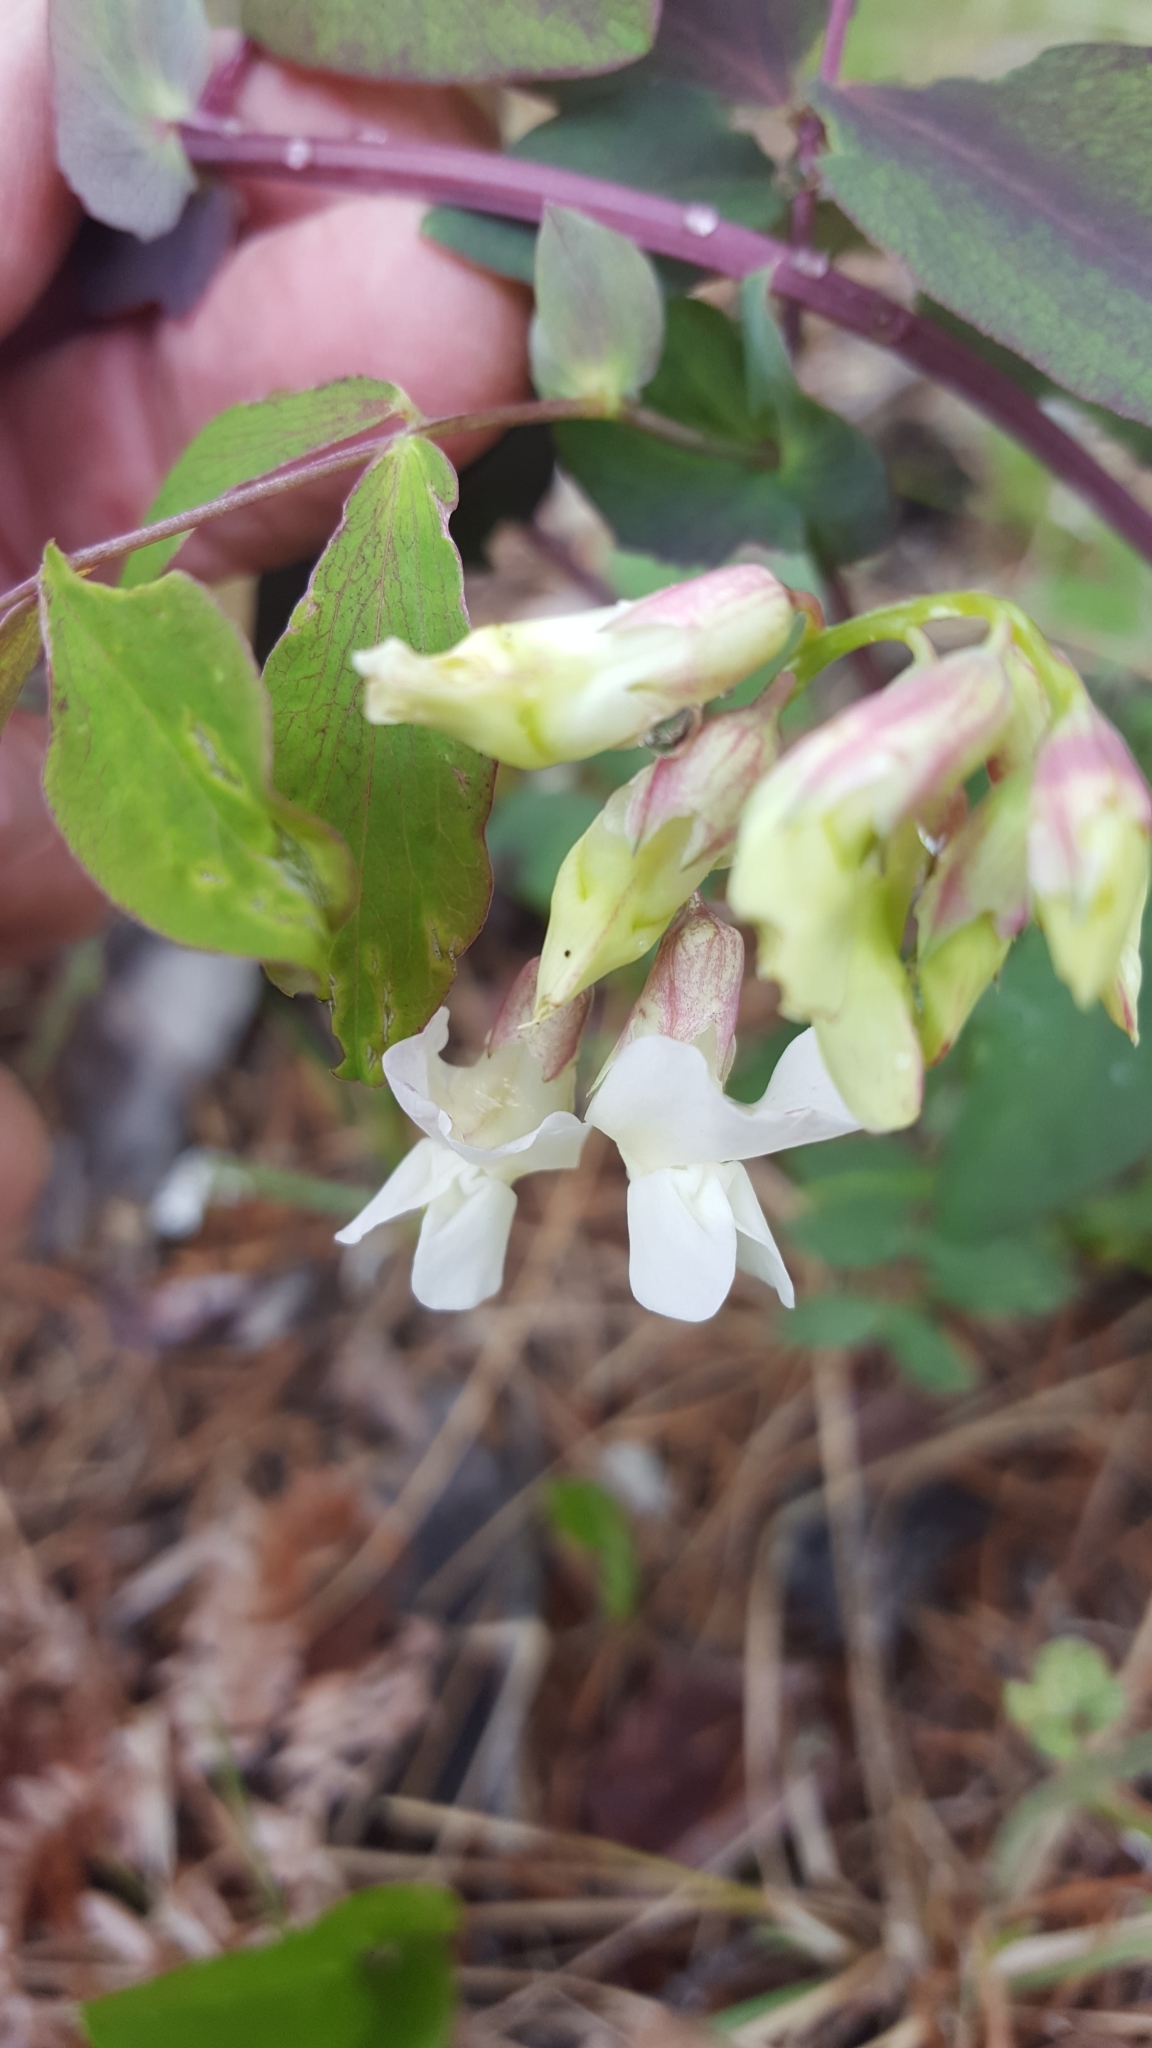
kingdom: Plantae
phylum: Tracheophyta
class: Magnoliopsida
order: Fabales
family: Fabaceae
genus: Lathyrus
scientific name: Lathyrus ochroleucus
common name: Pale vetchling
